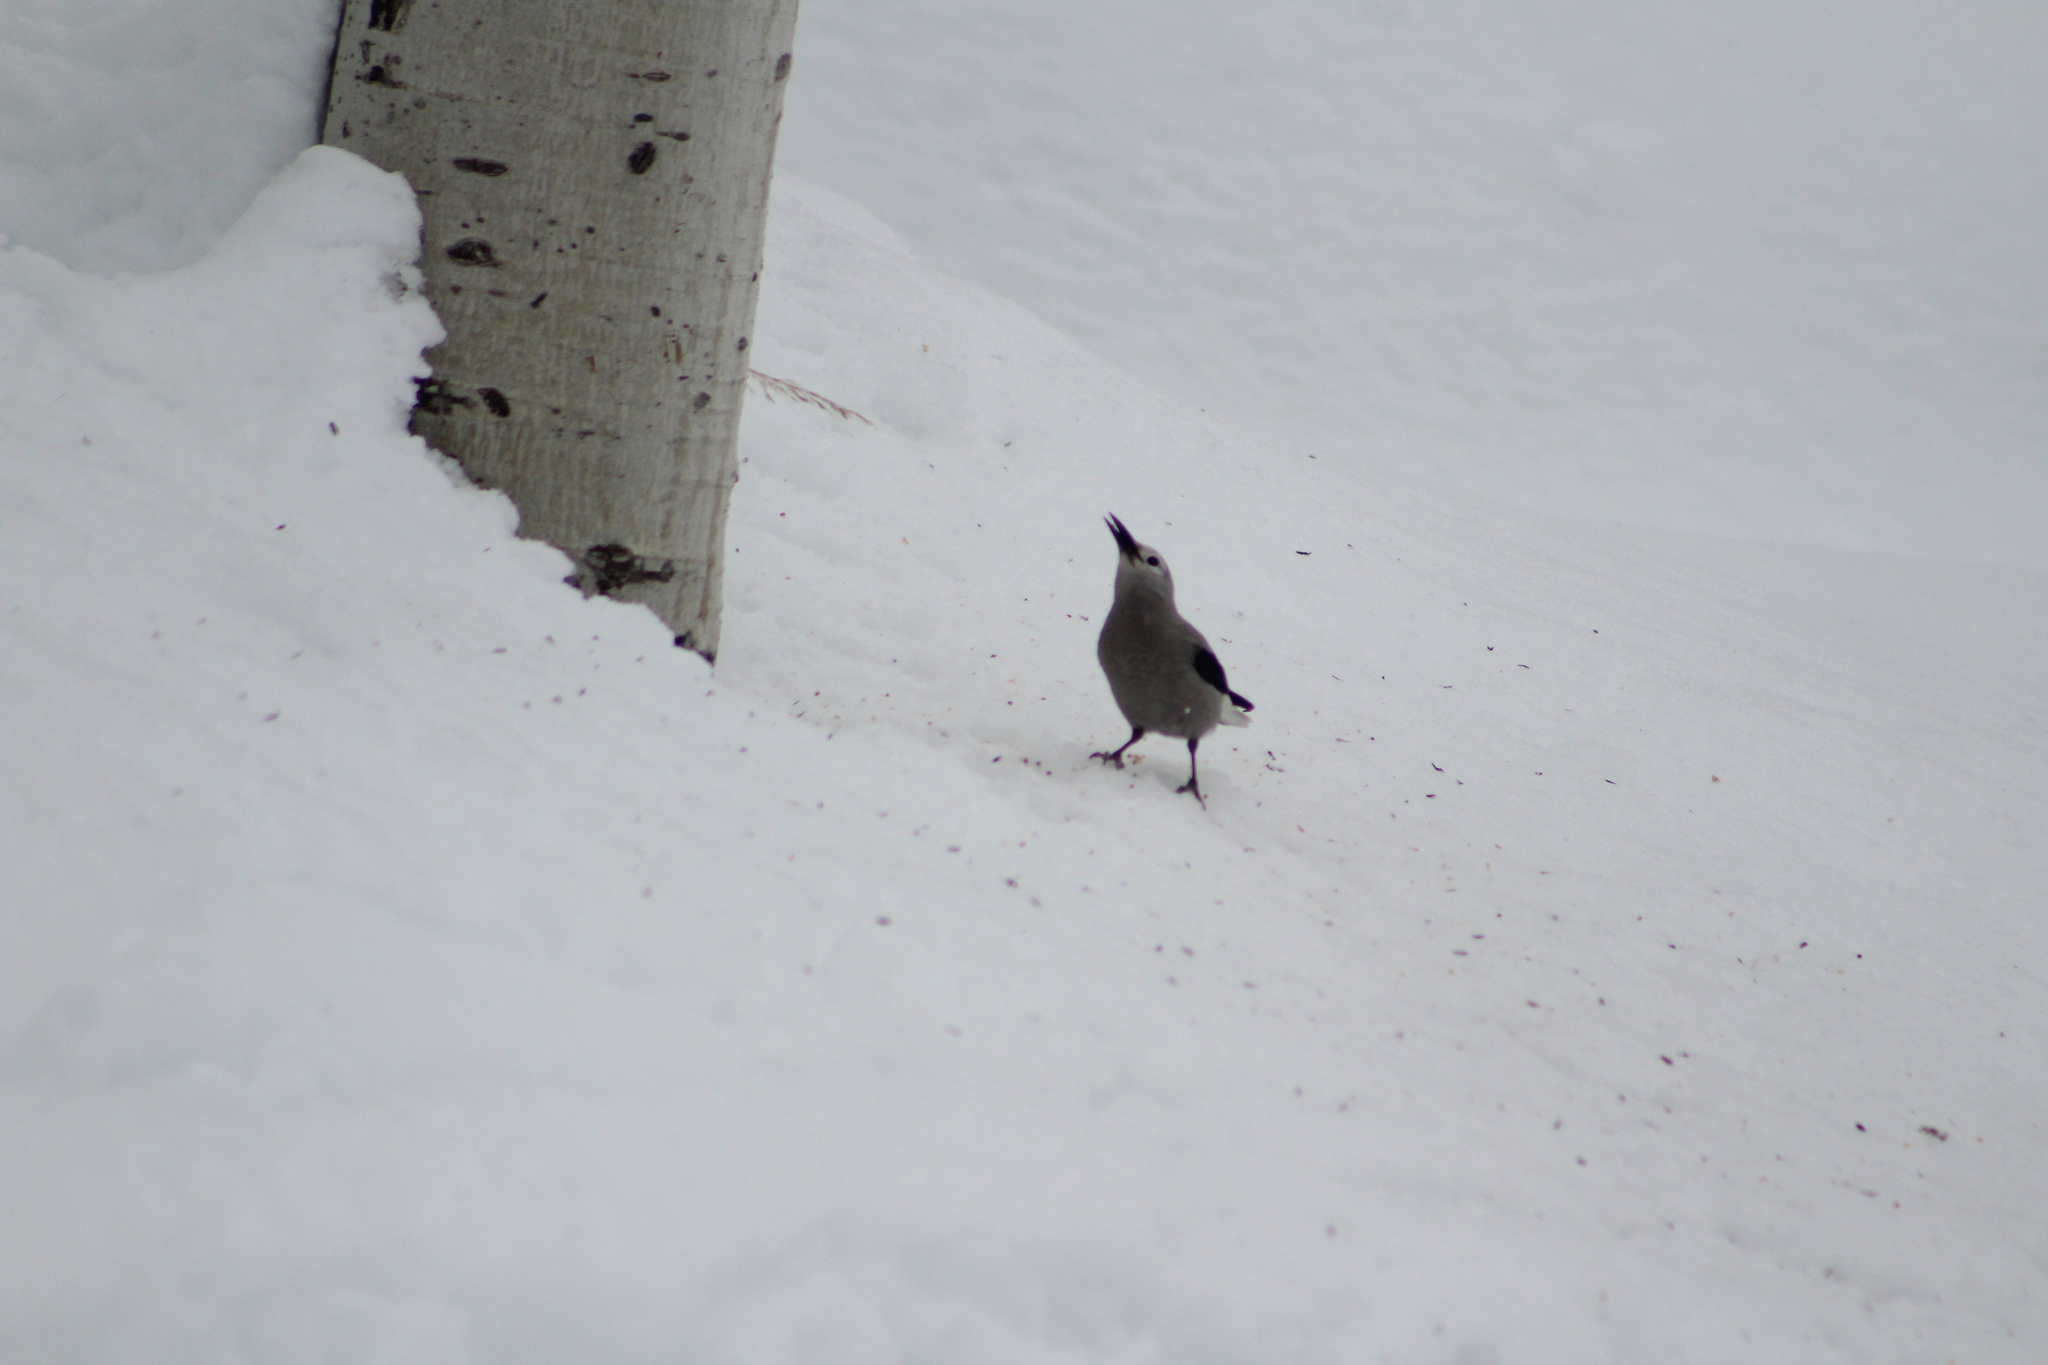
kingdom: Animalia
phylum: Chordata
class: Aves
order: Passeriformes
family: Corvidae
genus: Nucifraga
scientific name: Nucifraga columbiana
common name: Clark's nutcracker
